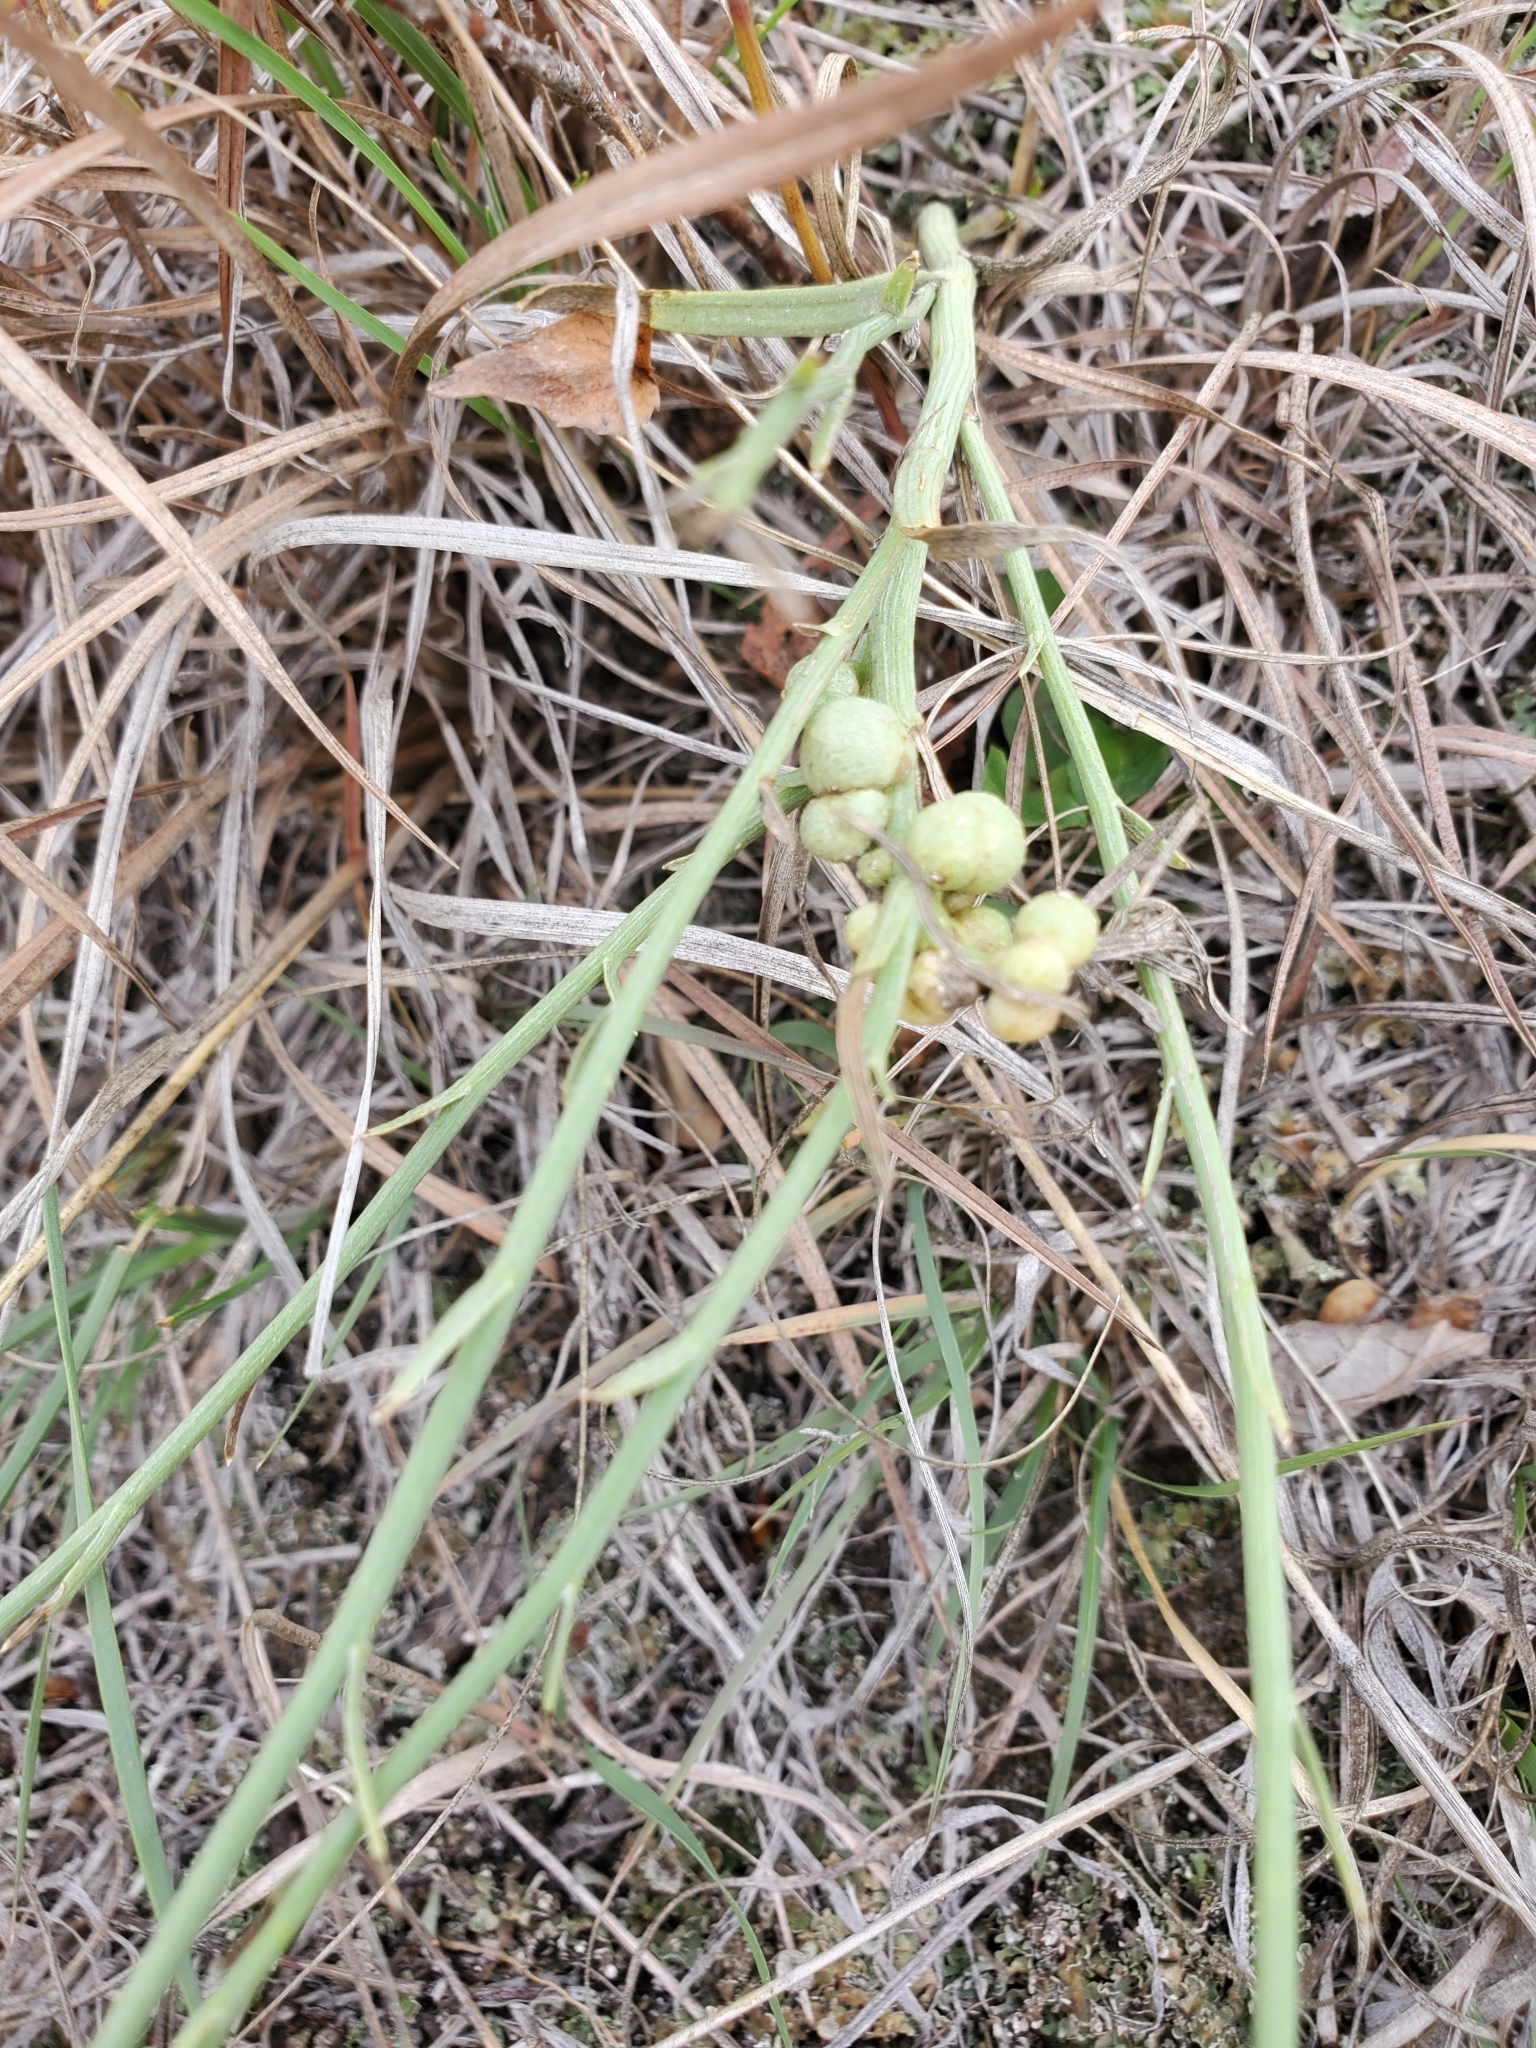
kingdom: Animalia
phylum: Arthropoda
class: Insecta
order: Hymenoptera
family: Cynipidae
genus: Antistrophus
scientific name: Antistrophus
